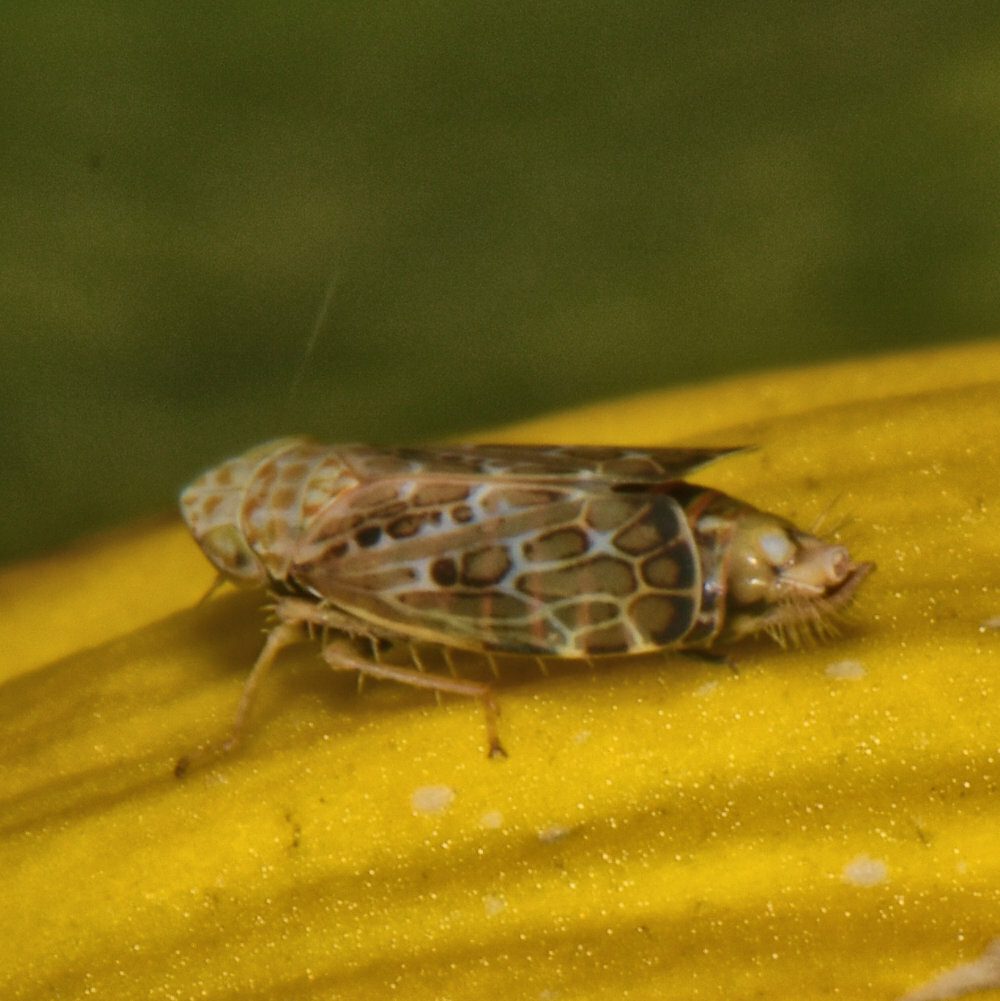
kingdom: Animalia
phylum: Arthropoda
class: Insecta
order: Hemiptera
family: Cicadellidae
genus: Errastunus
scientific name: Errastunus ocellaris
